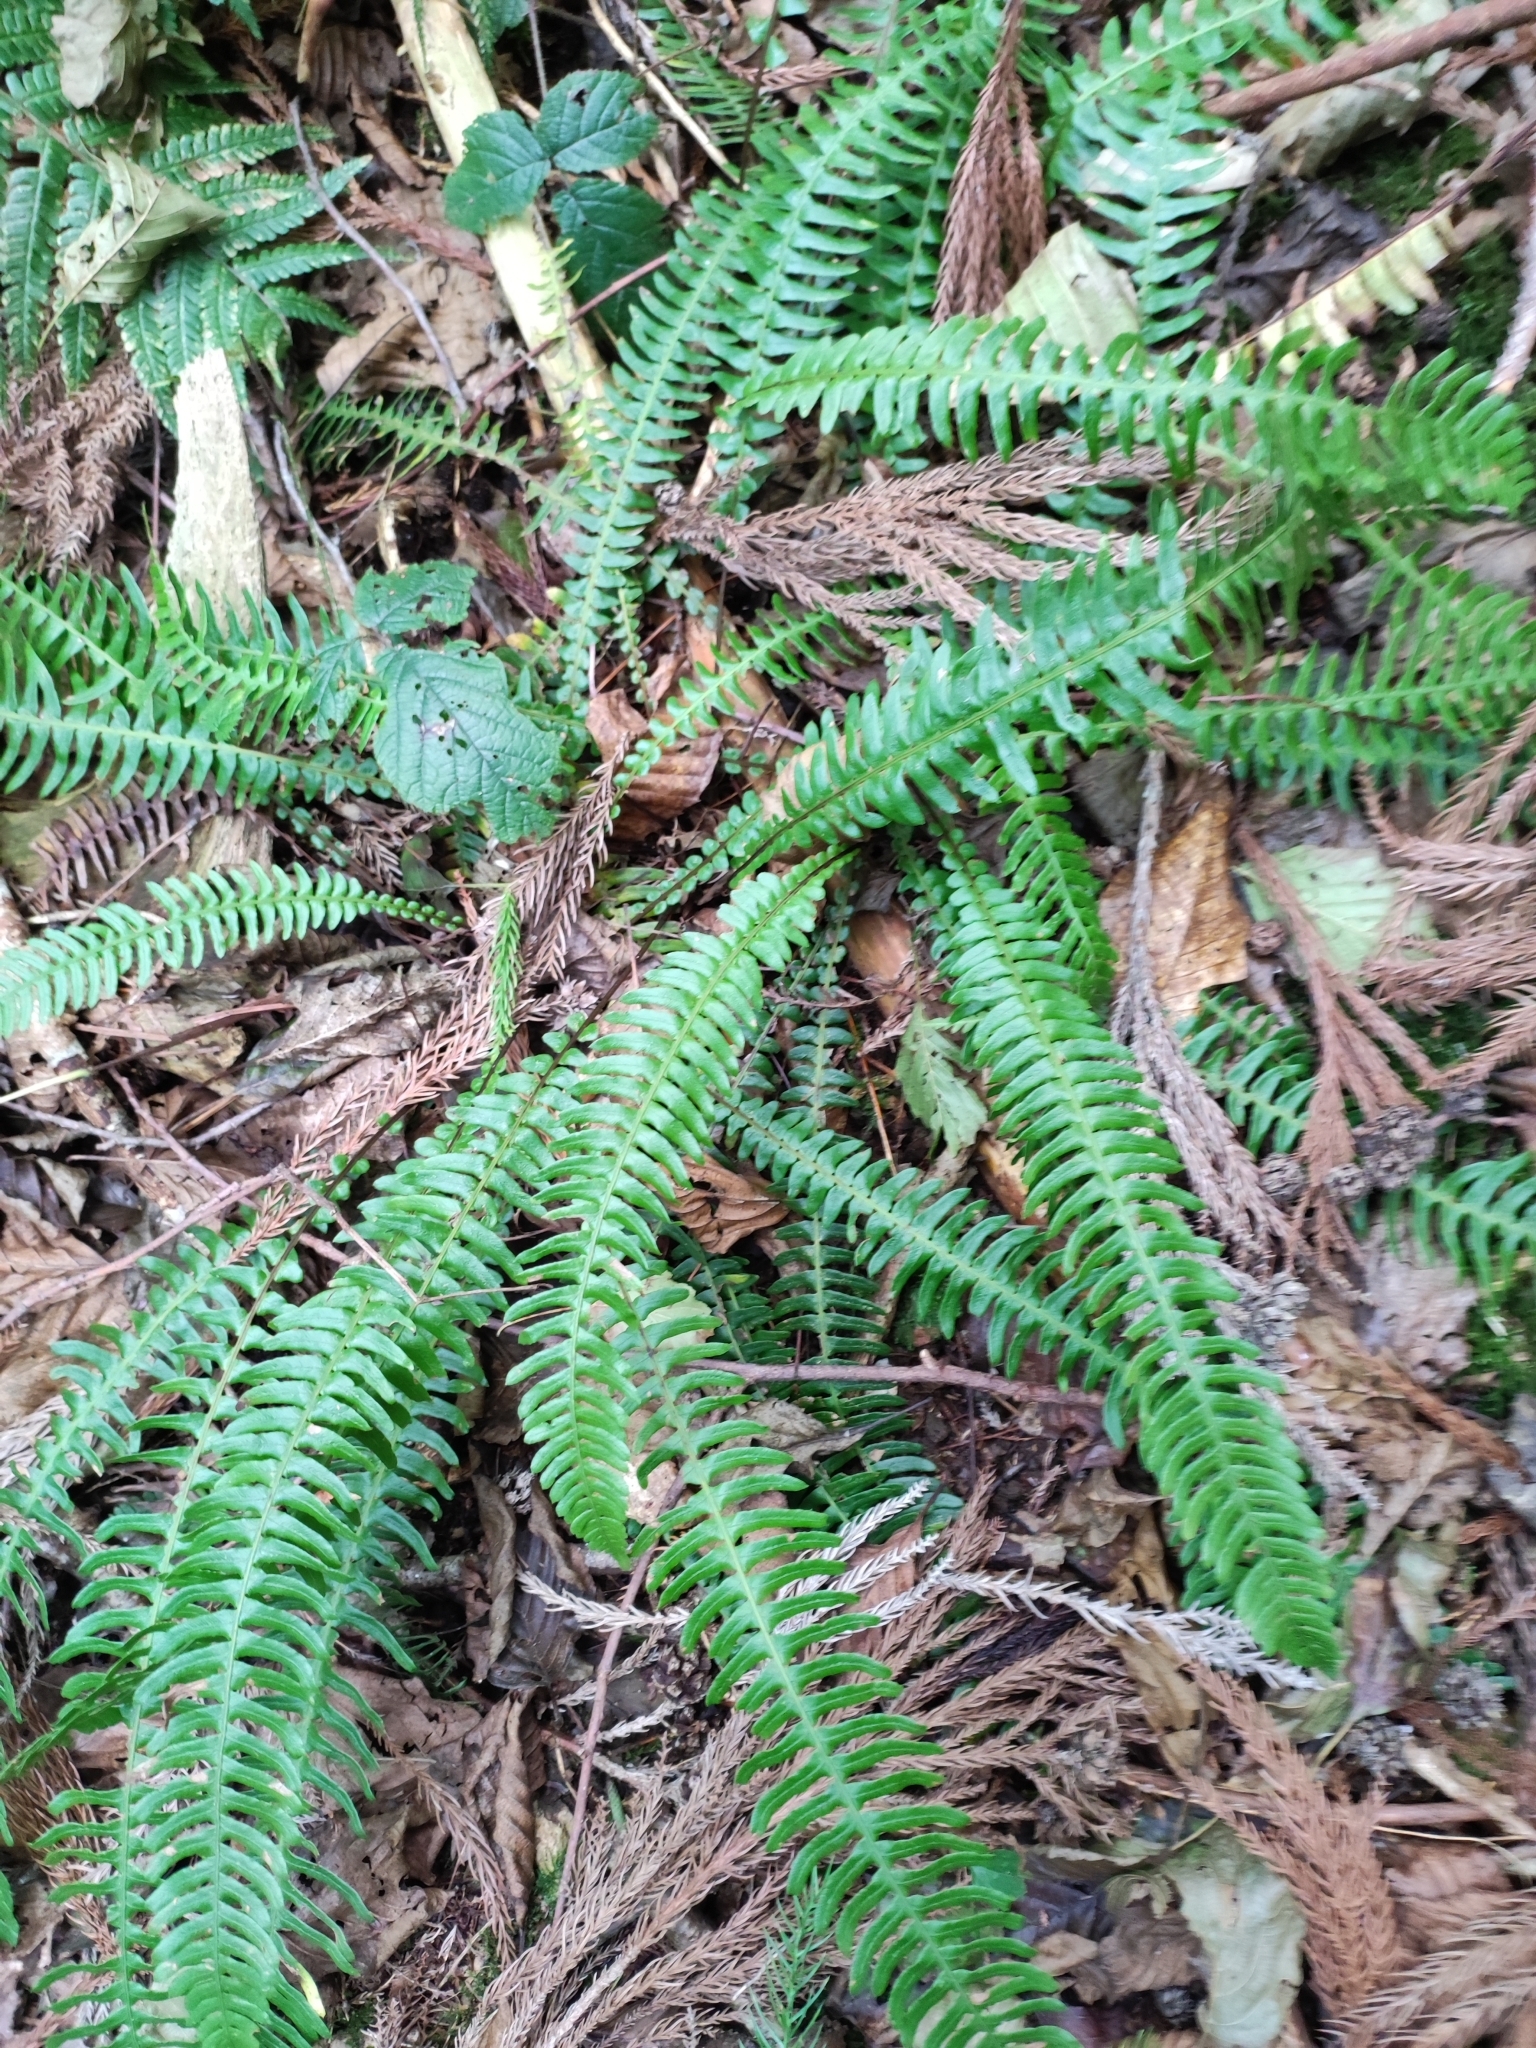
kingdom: Plantae
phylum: Tracheophyta
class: Polypodiopsida
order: Polypodiales
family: Blechnaceae
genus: Struthiopteris
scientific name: Struthiopteris spicant
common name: Deer fern
